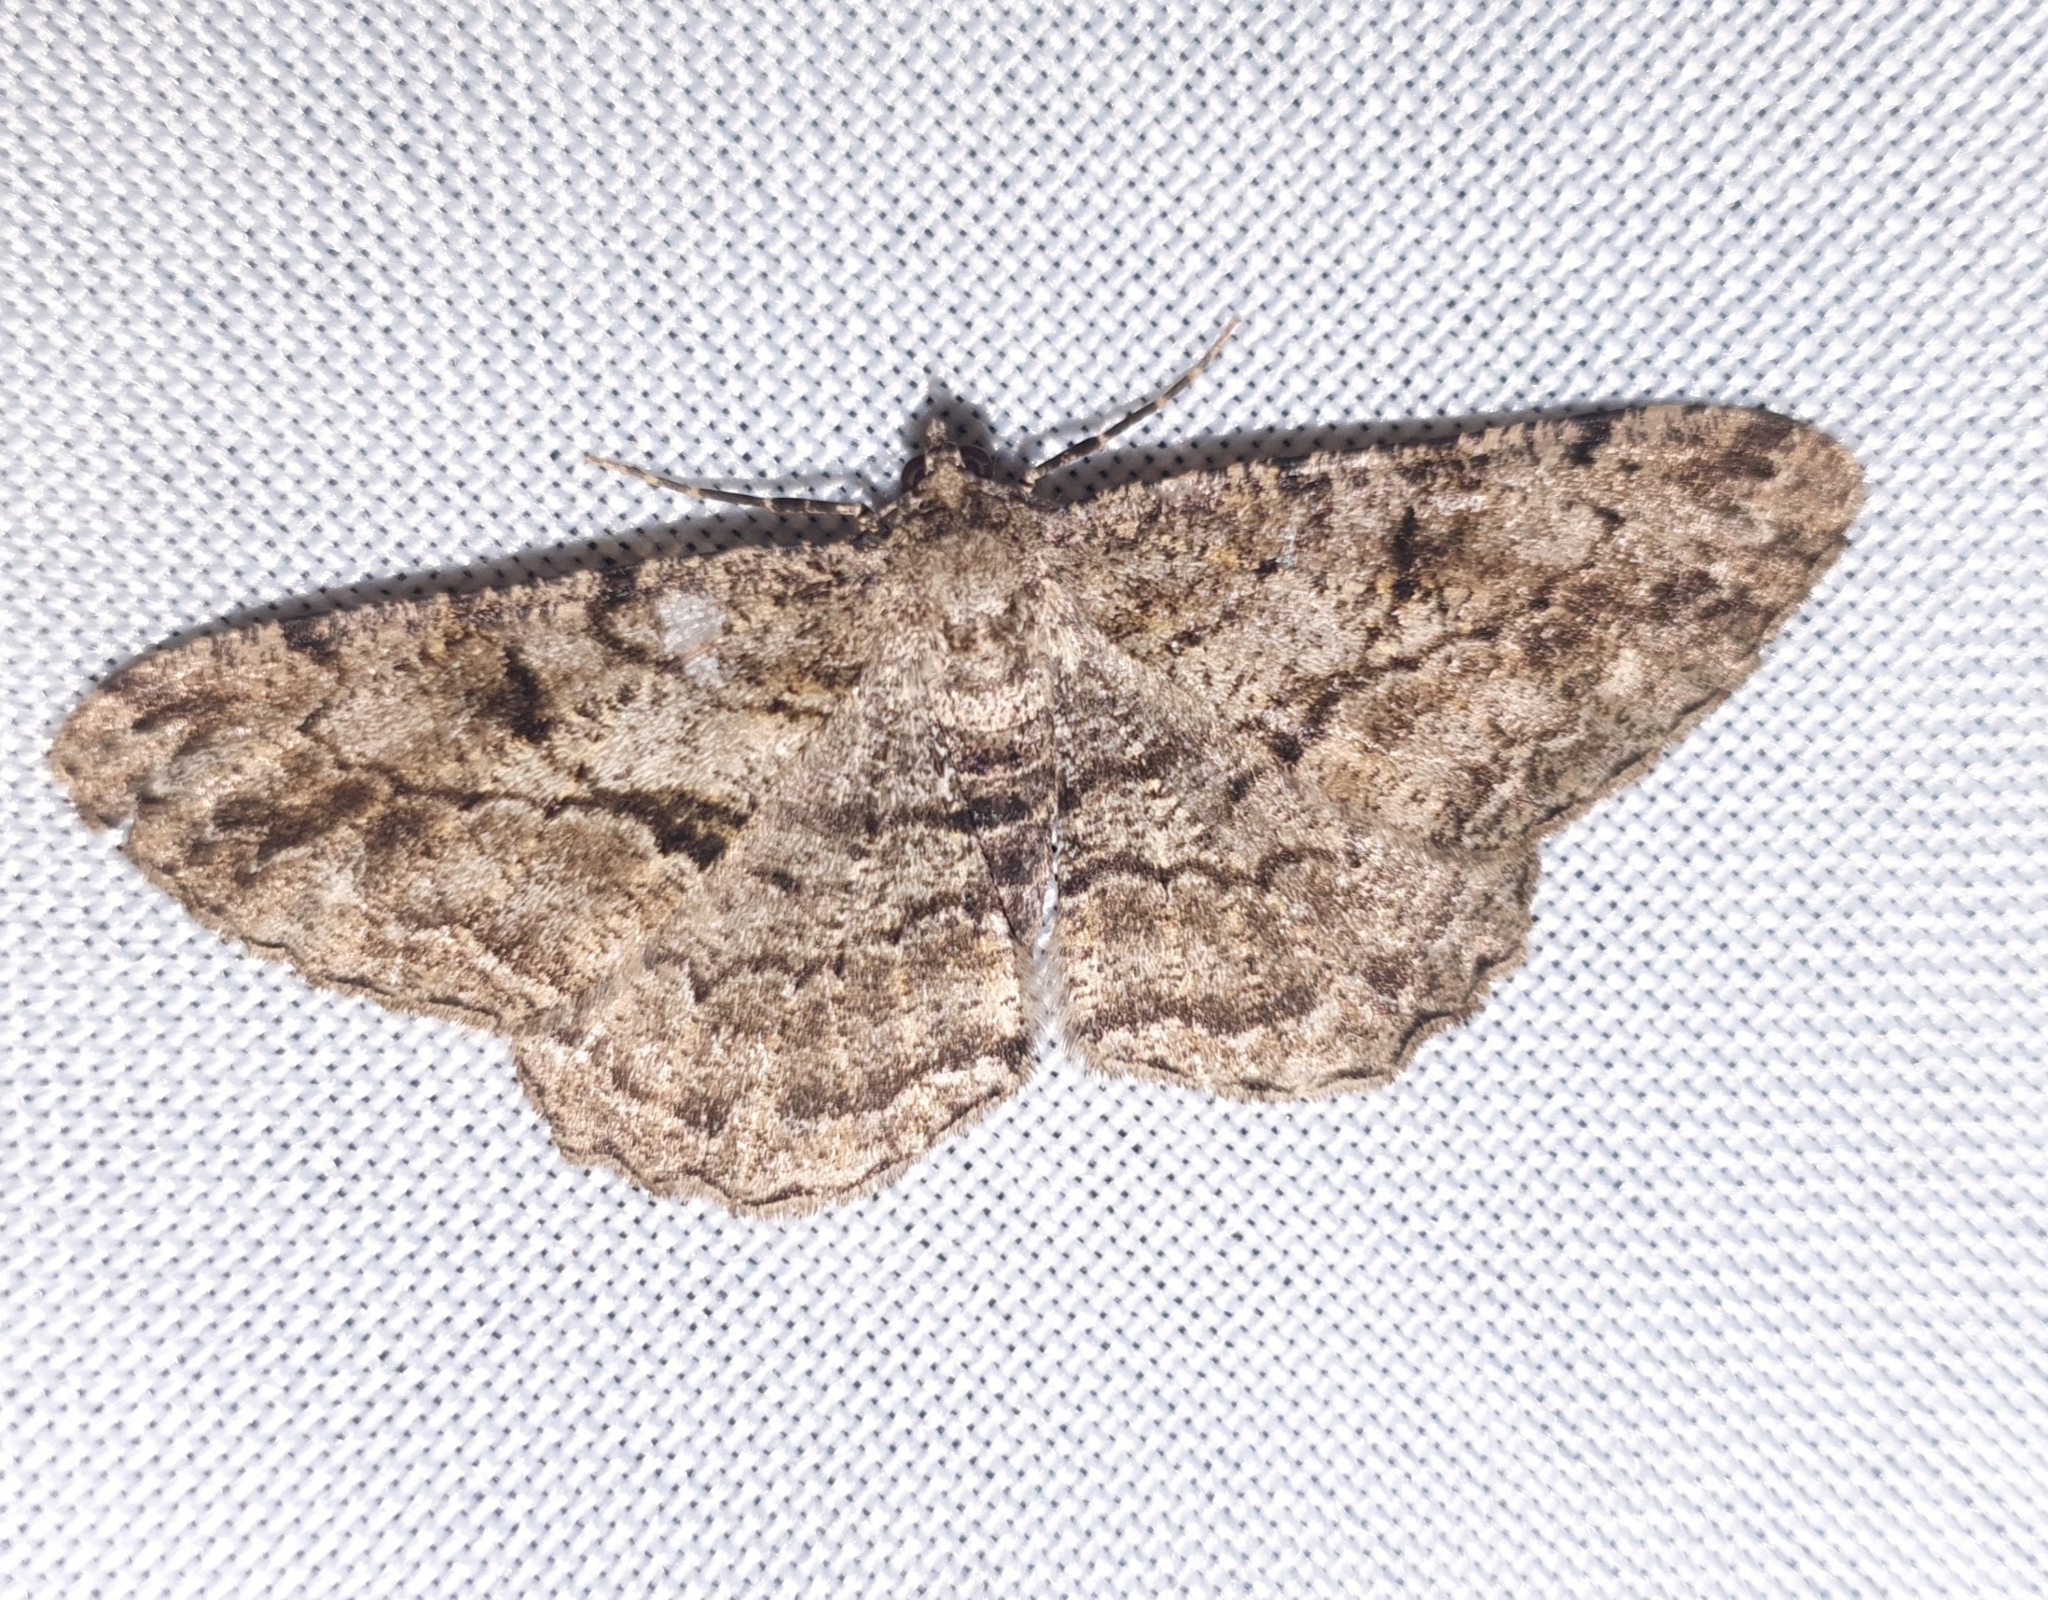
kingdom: Animalia
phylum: Arthropoda
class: Insecta
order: Lepidoptera
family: Geometridae
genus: Peribatodes
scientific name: Peribatodes rhomboidaria
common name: Willow beauty
